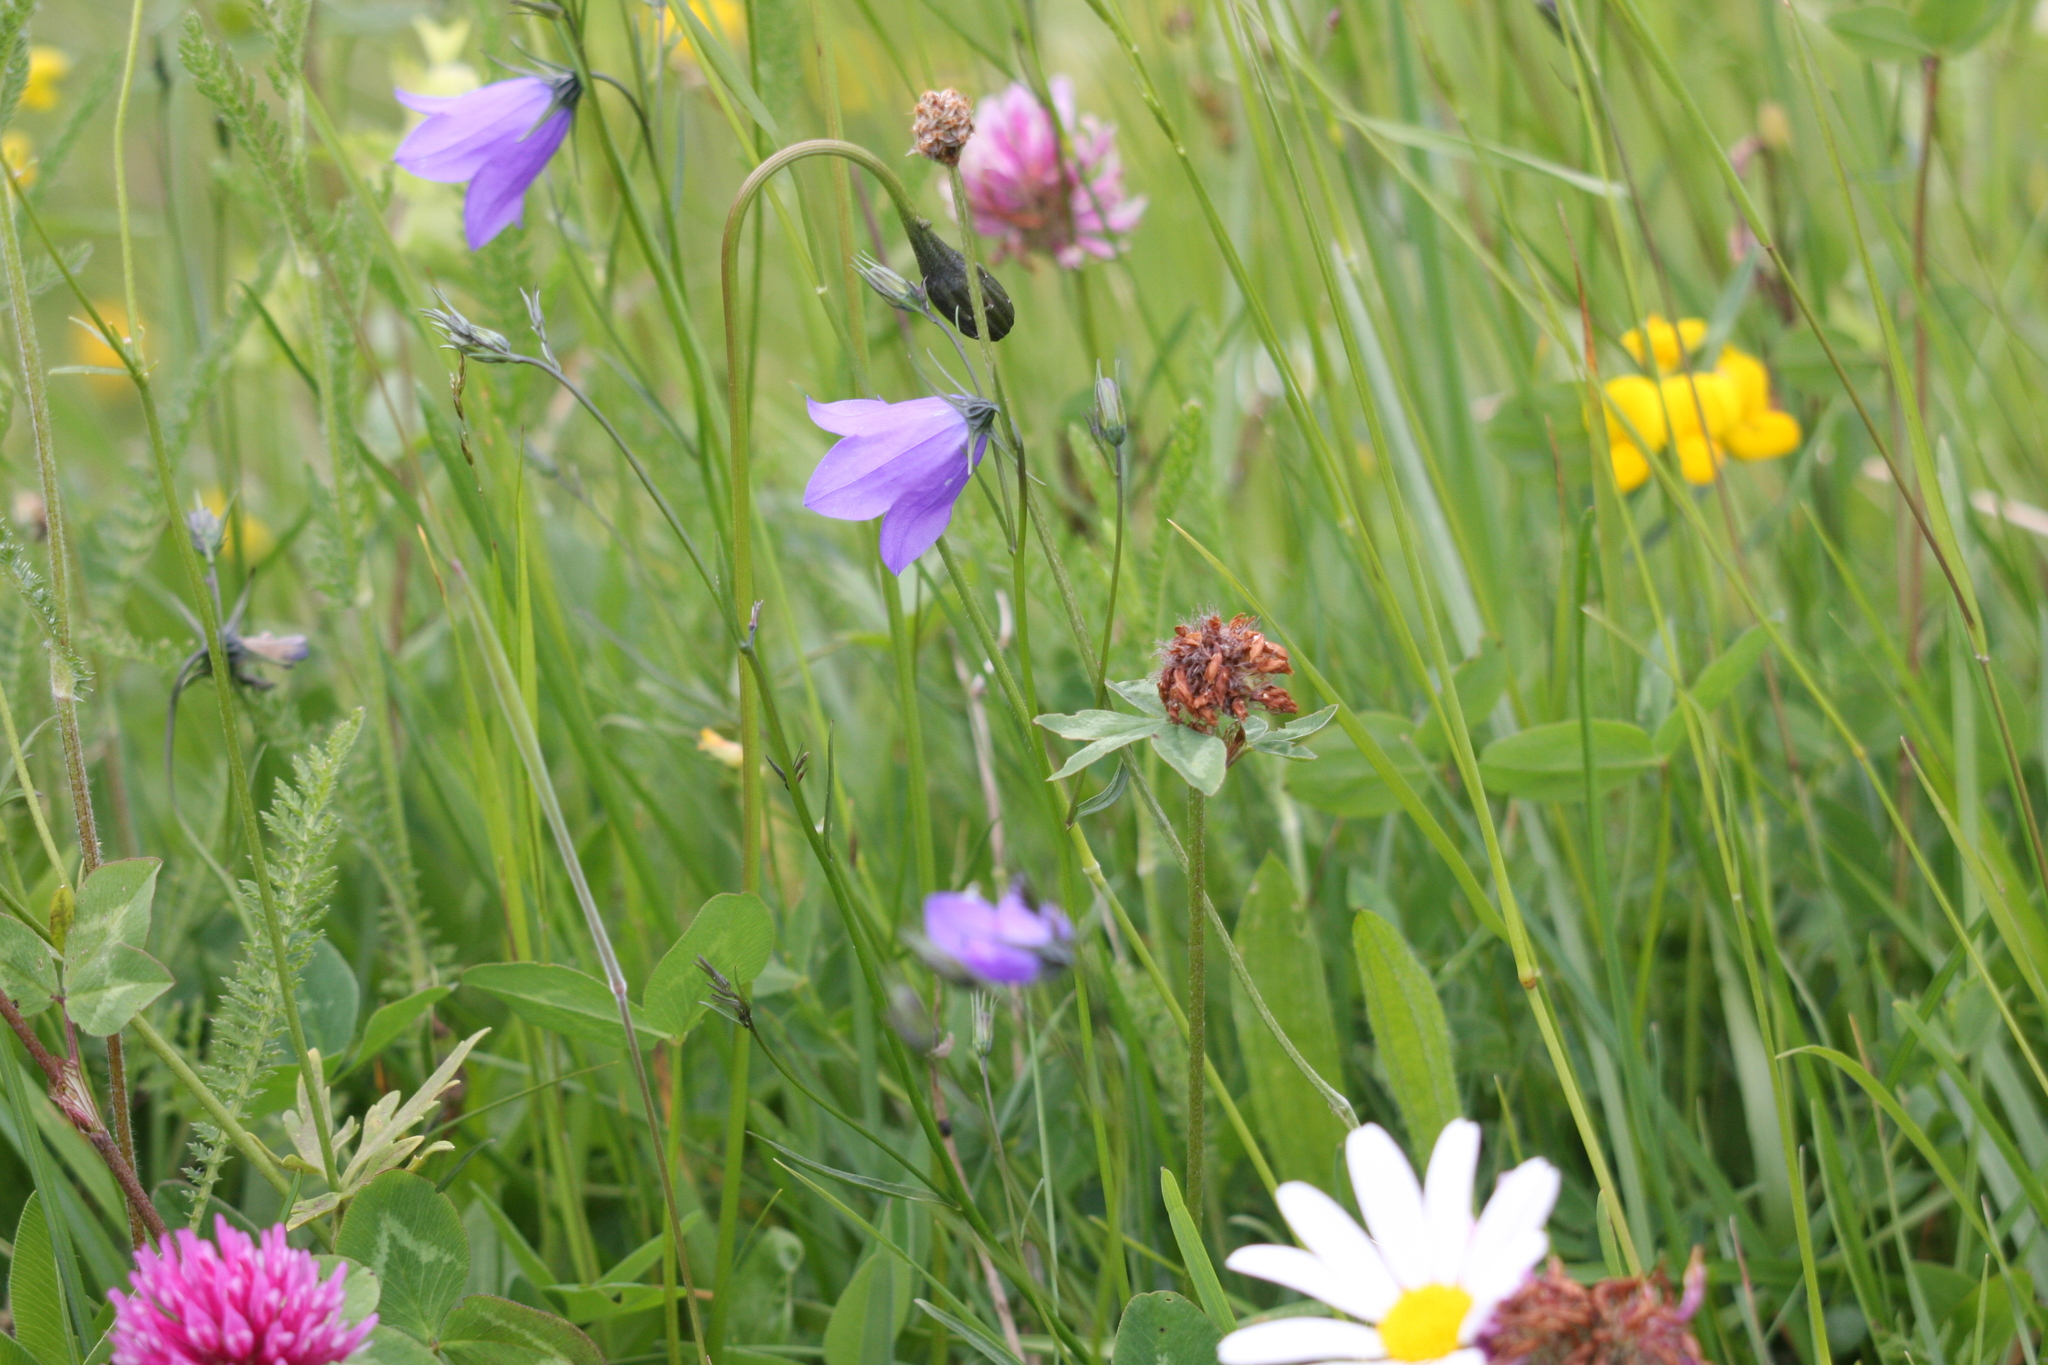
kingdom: Plantae
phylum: Tracheophyta
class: Magnoliopsida
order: Asterales
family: Campanulaceae
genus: Campanula
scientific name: Campanula rotundifolia
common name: Harebell
